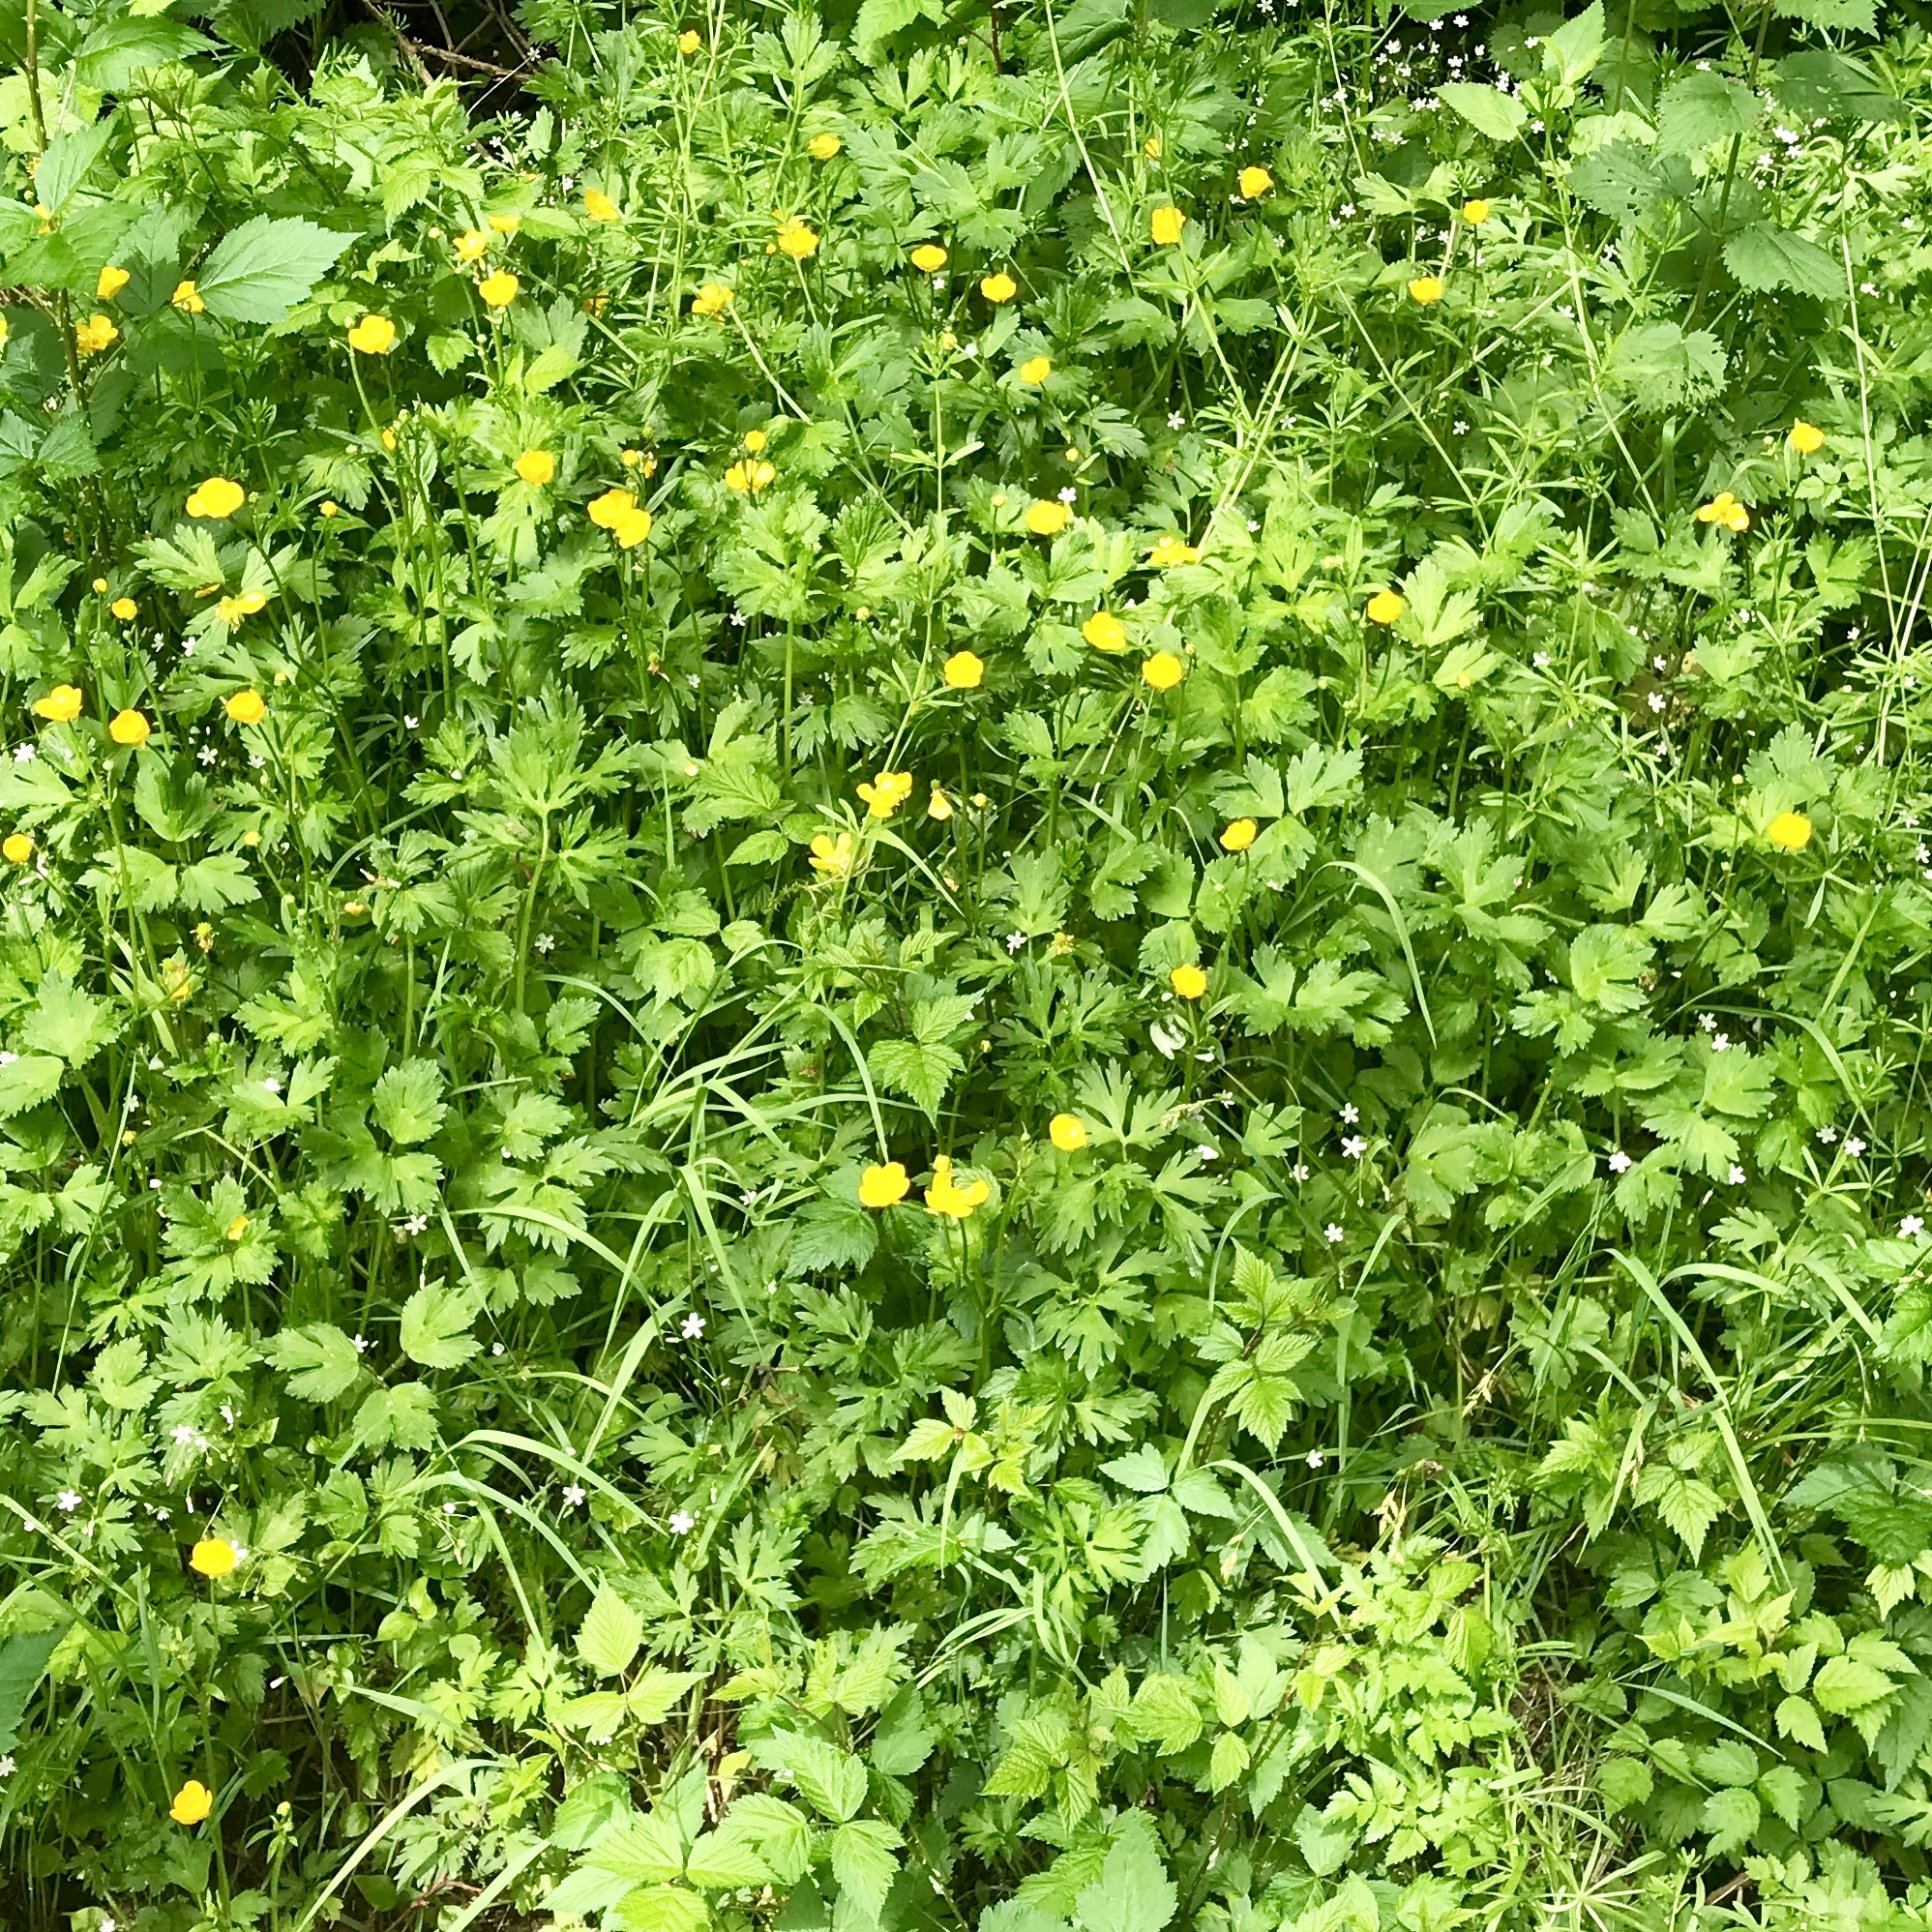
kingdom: Plantae
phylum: Tracheophyta
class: Magnoliopsida
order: Ranunculales
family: Ranunculaceae
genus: Ranunculus
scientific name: Ranunculus repens
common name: Creeping buttercup
